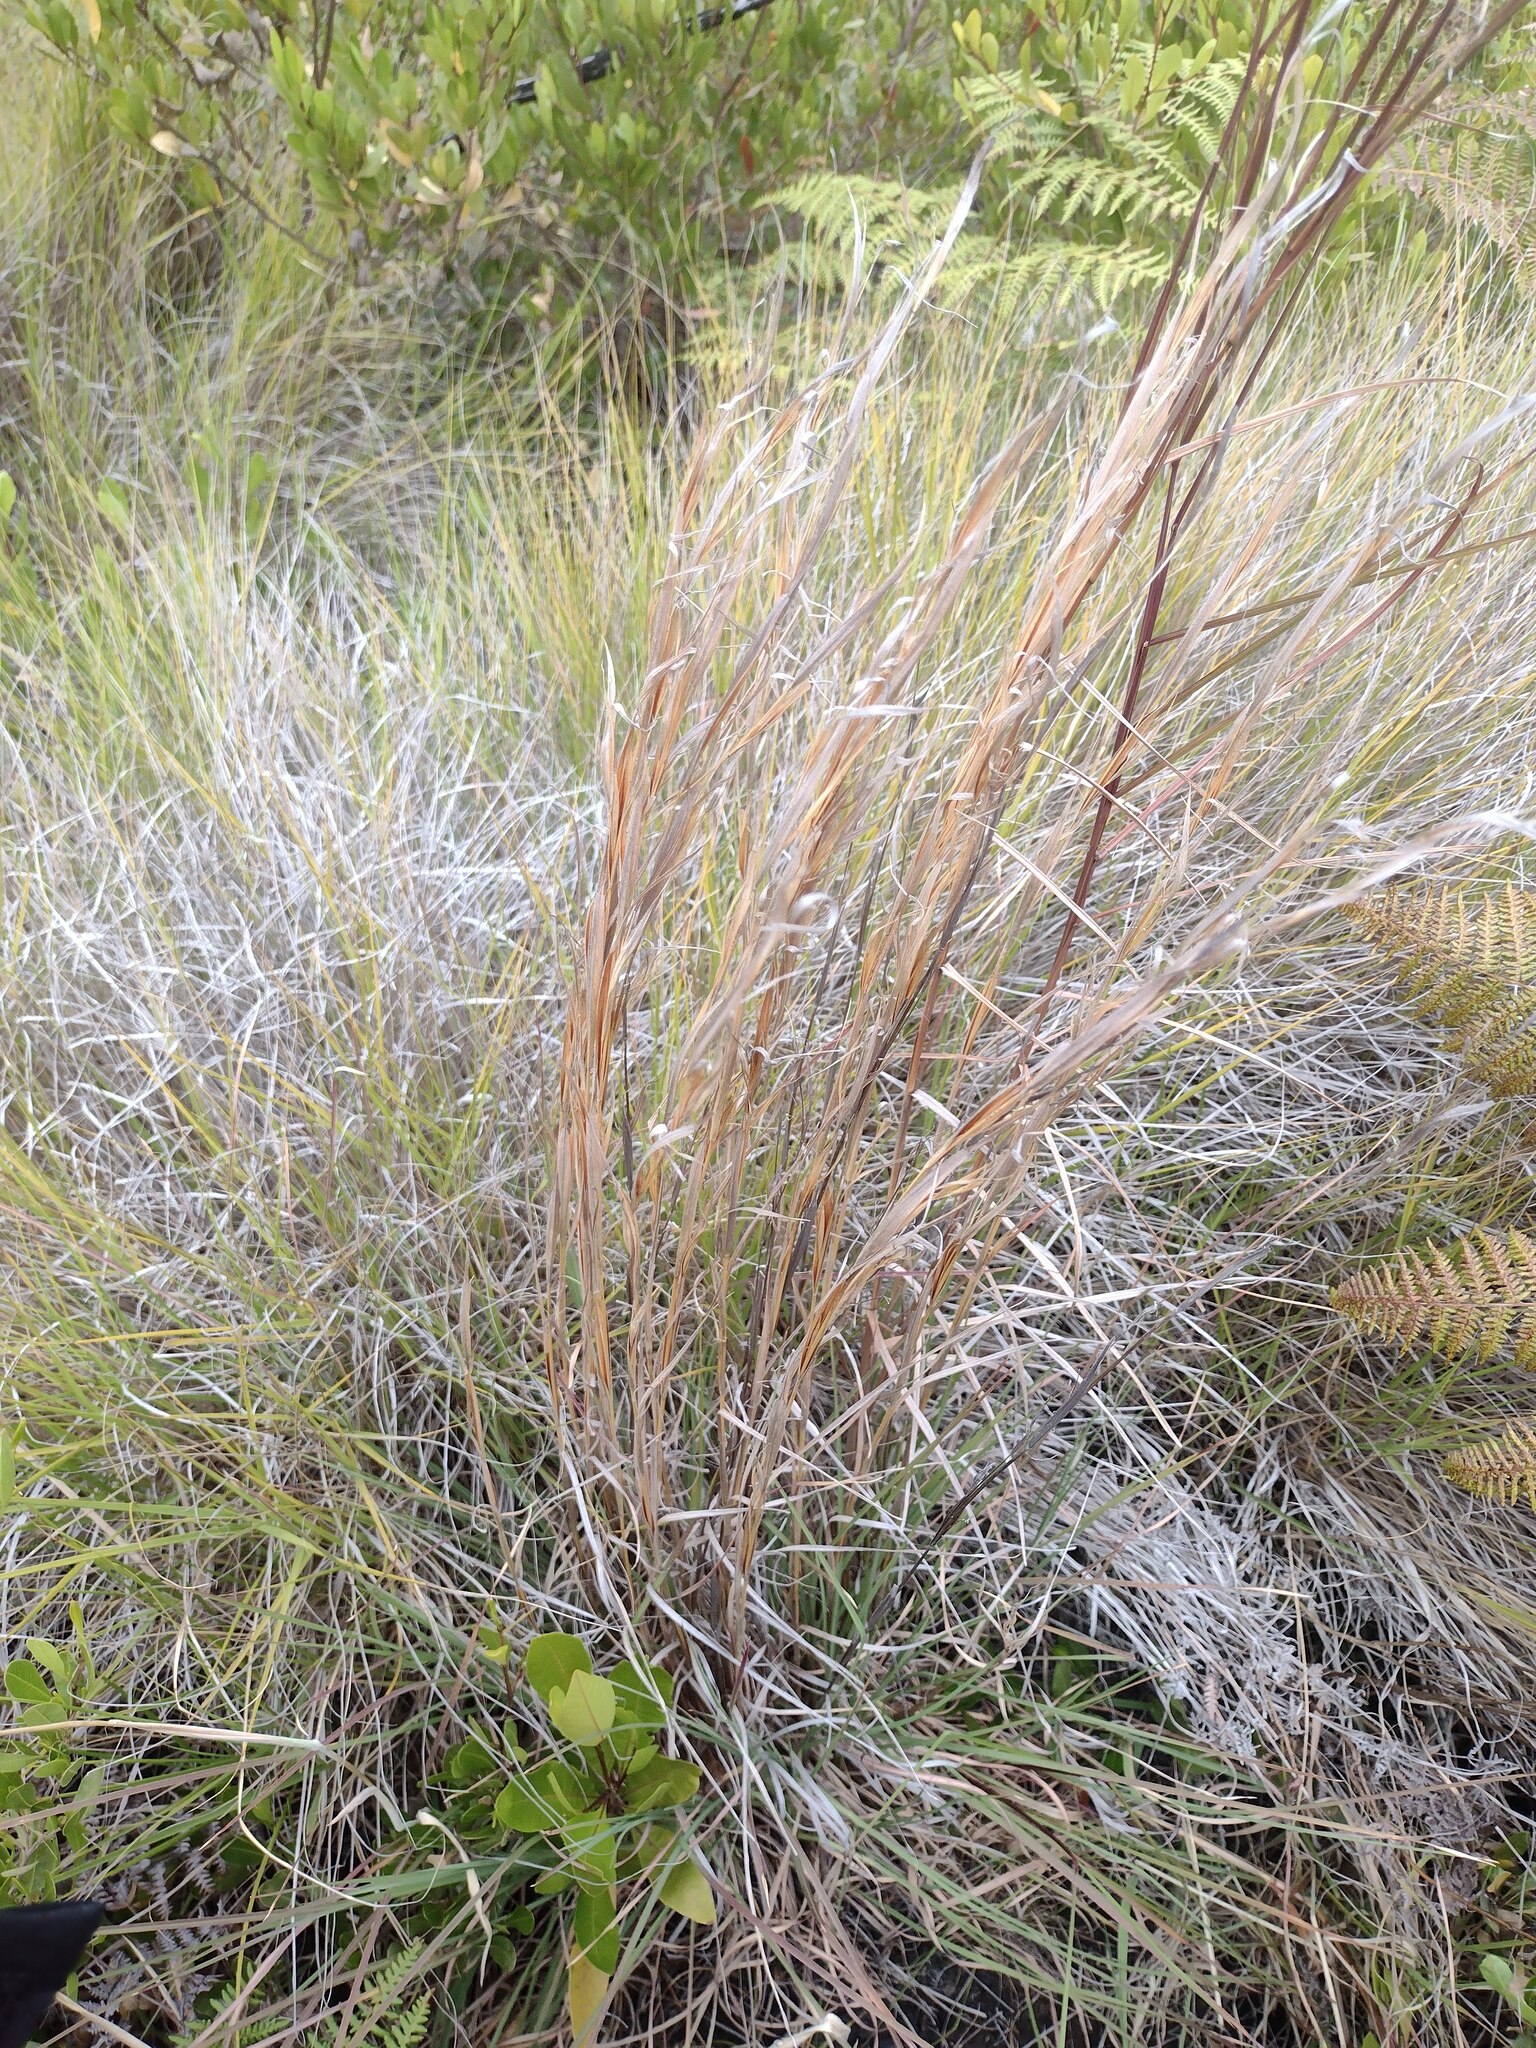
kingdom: Plantae
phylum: Tracheophyta
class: Liliopsida
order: Poales
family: Poaceae
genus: Andropogon
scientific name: Andropogon virginicus
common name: Broomsedge bluestem
